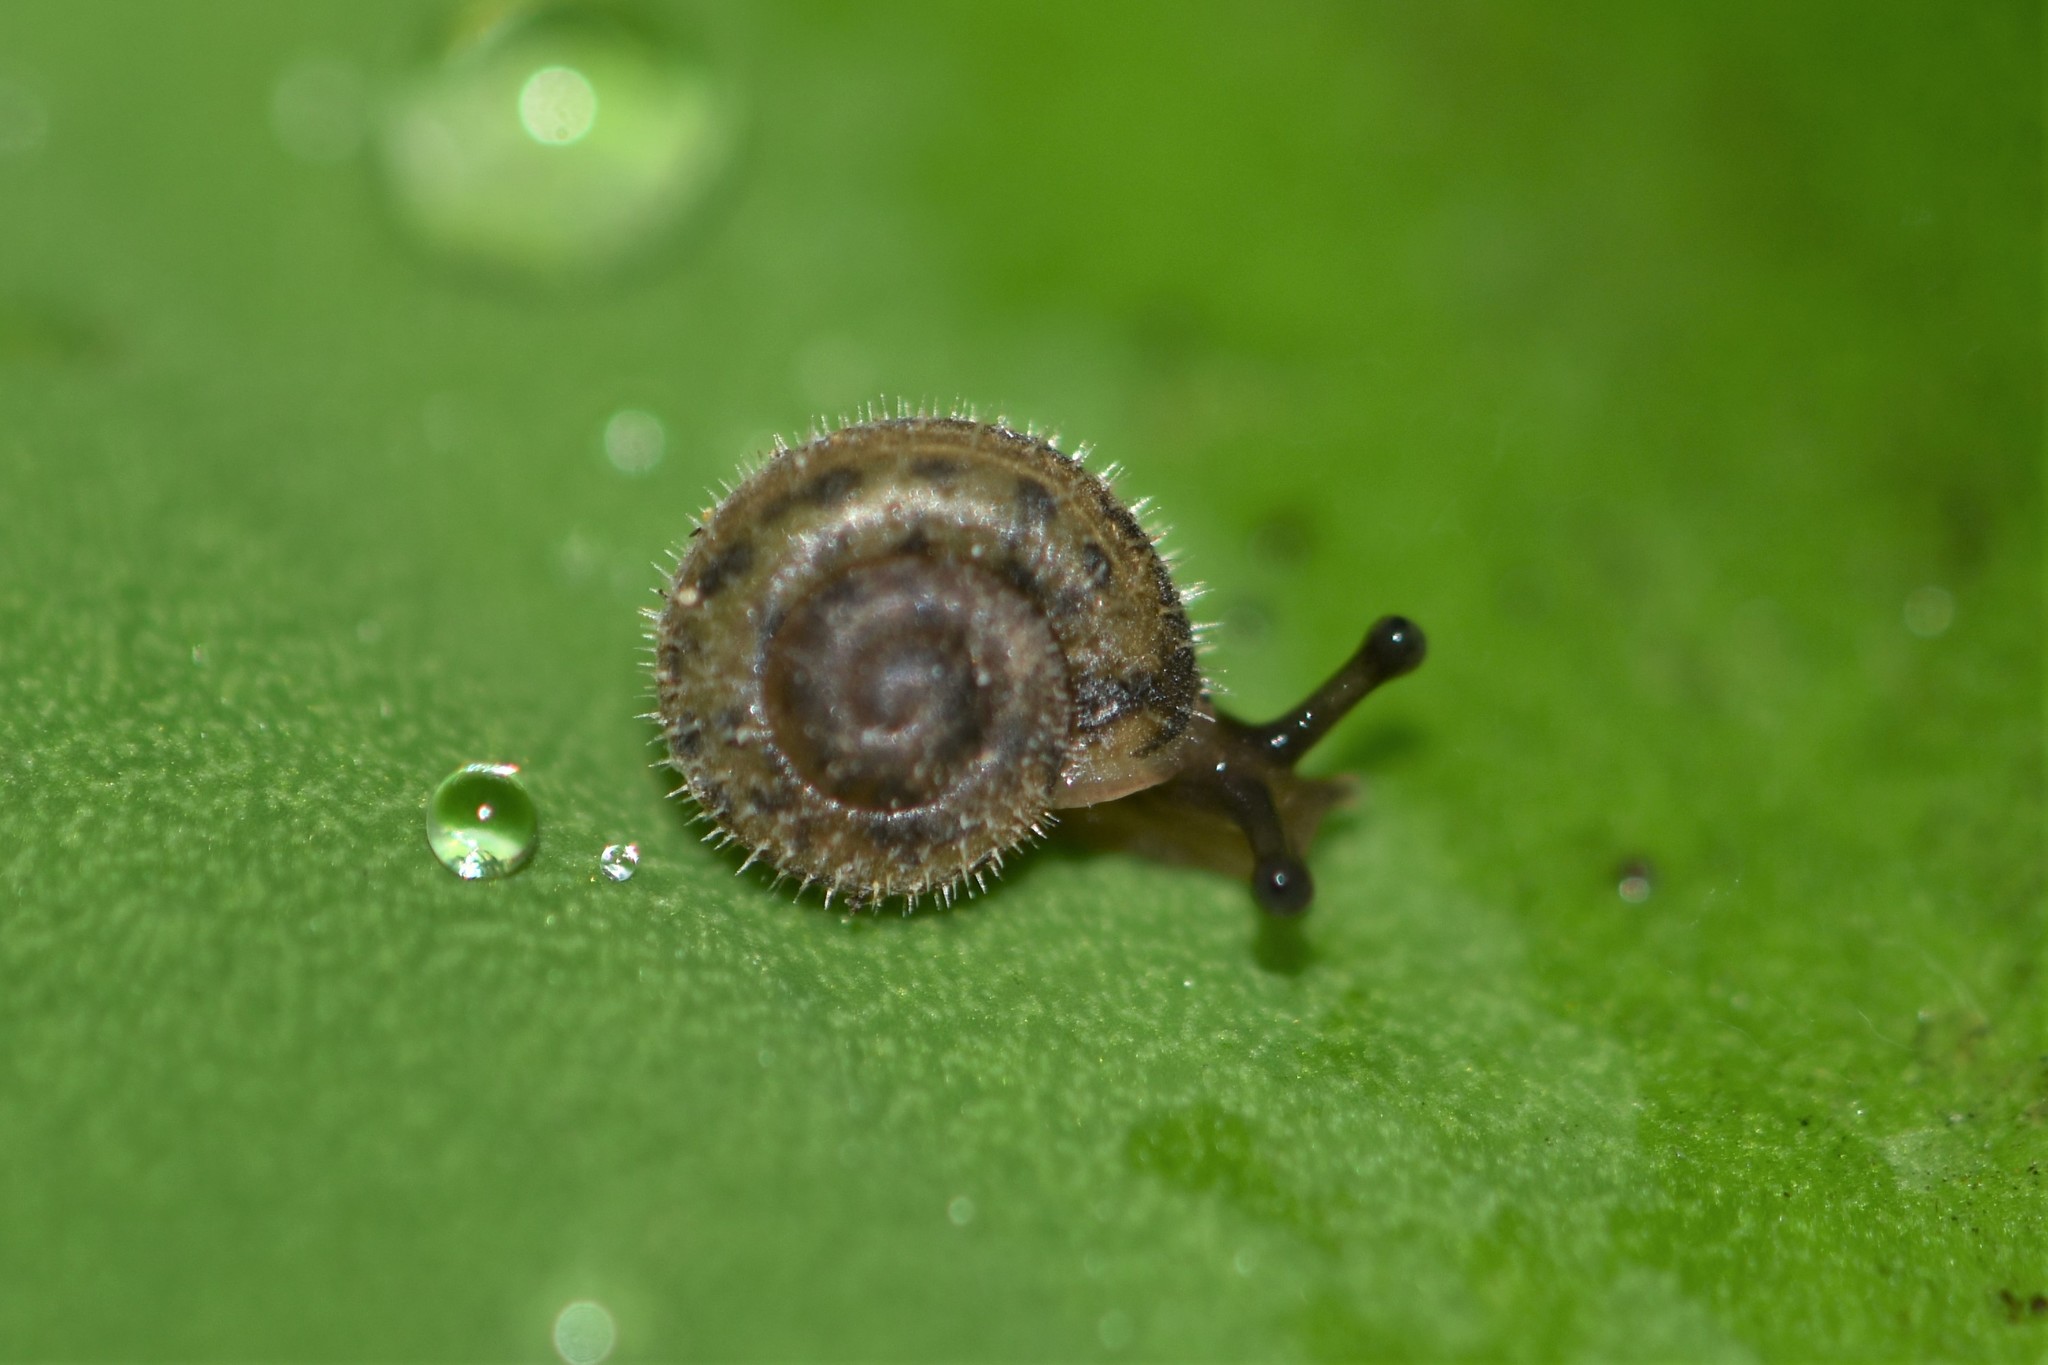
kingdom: Animalia
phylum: Mollusca
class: Gastropoda
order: Stylommatophora
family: Polygyridae
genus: Vespericola
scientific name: Vespericola columbianus
